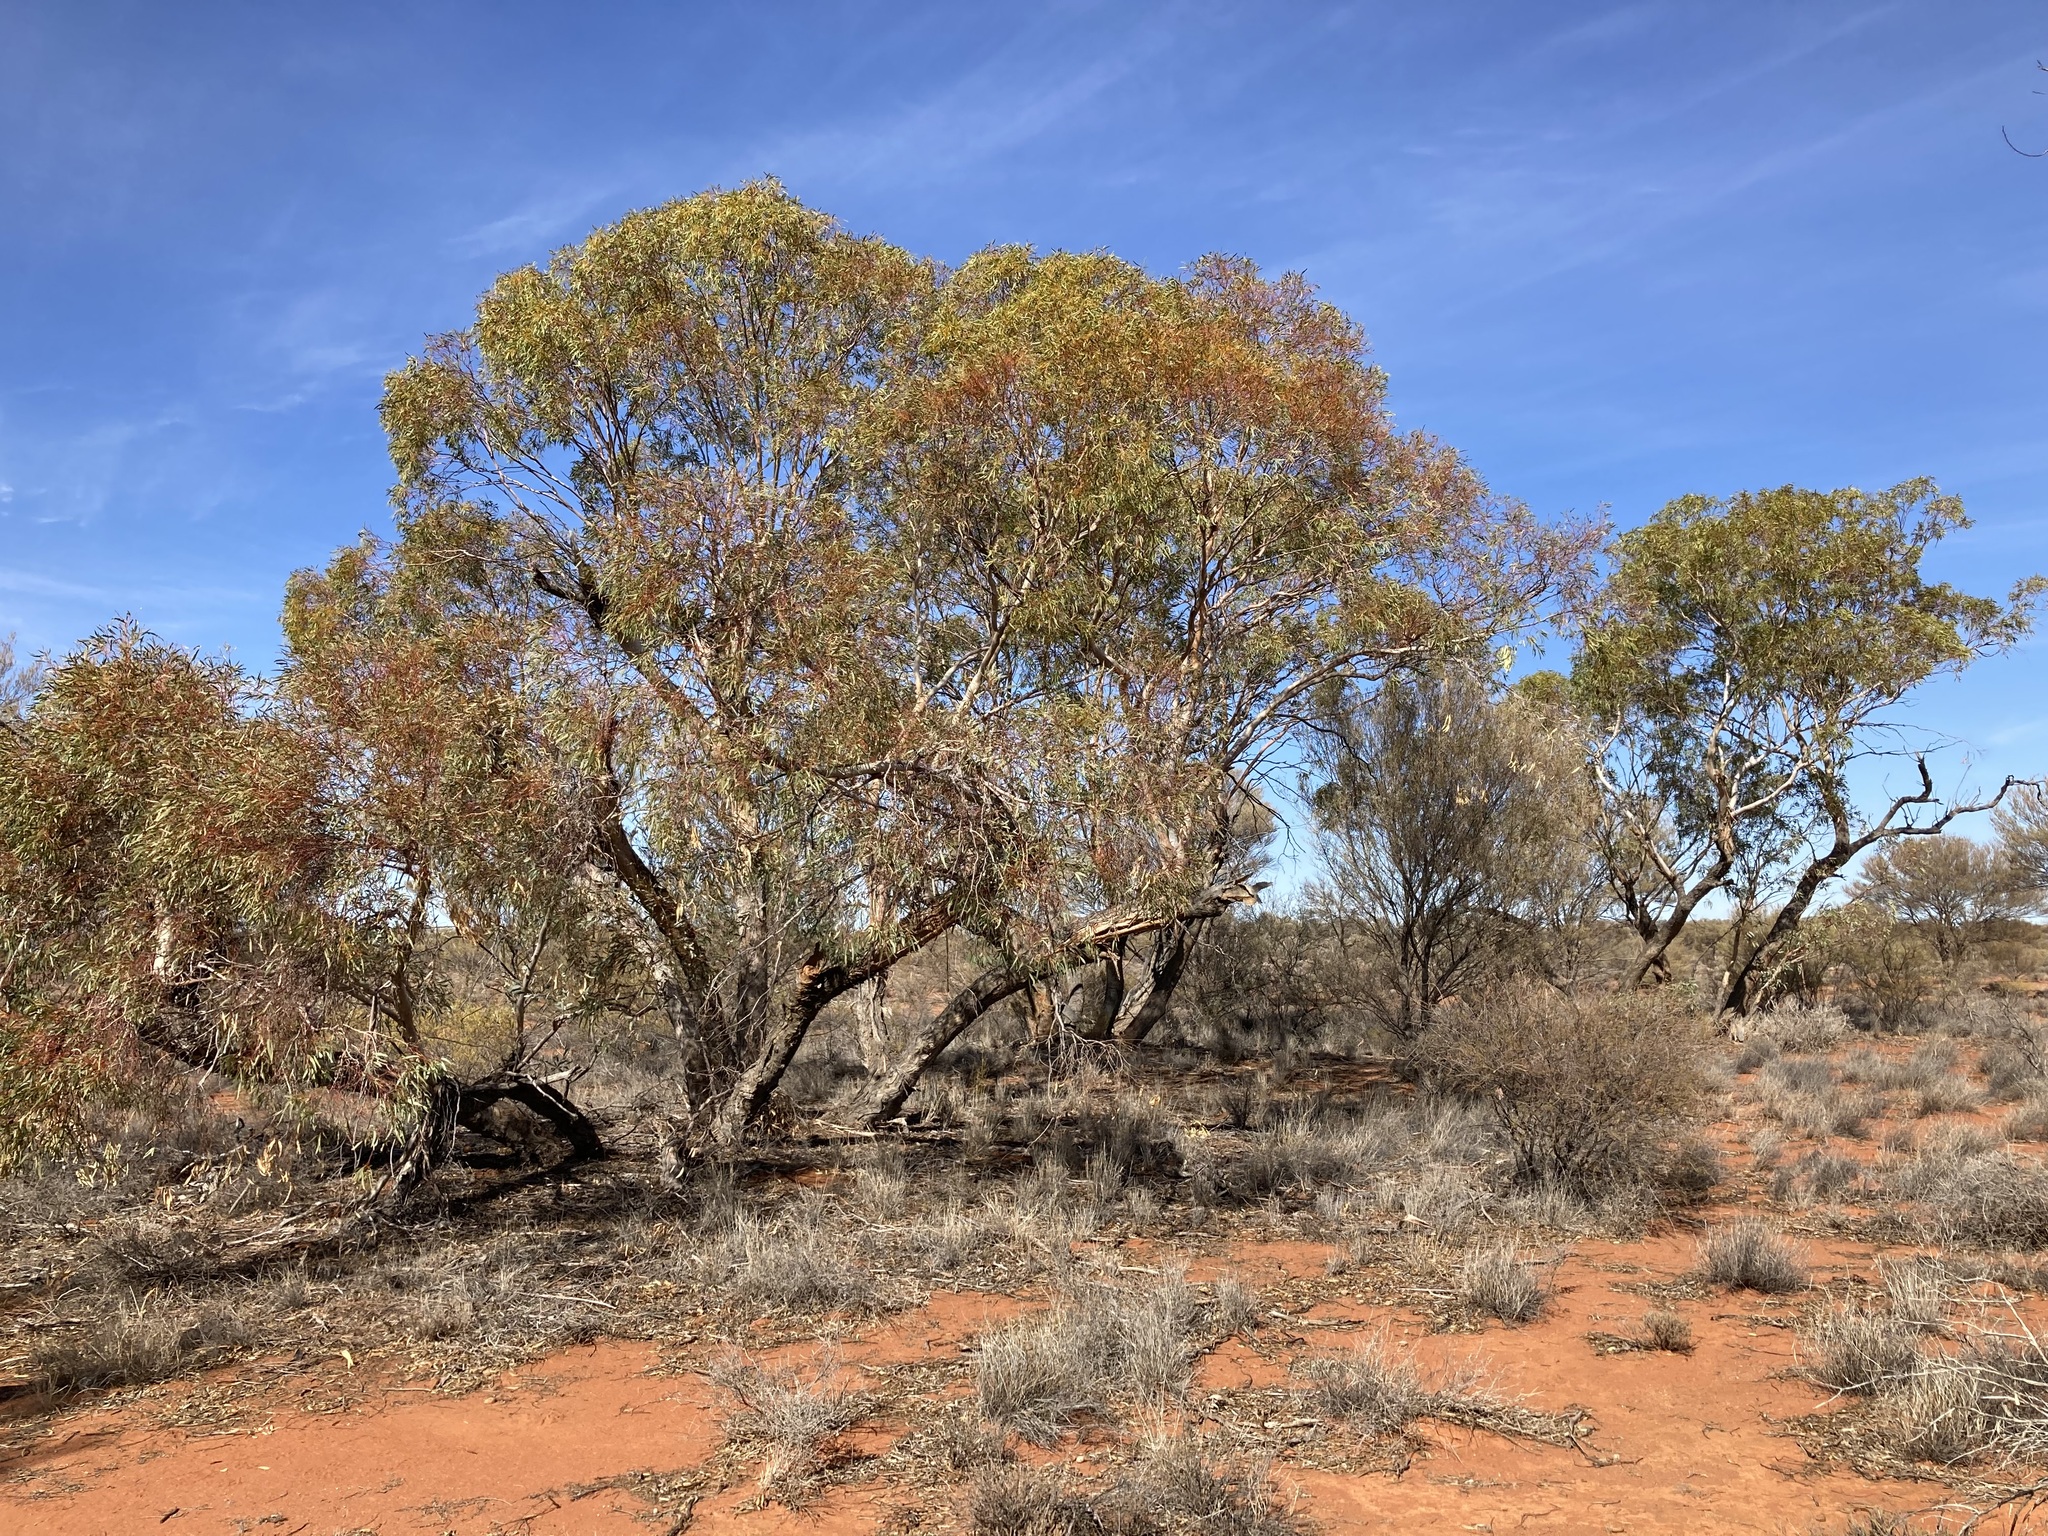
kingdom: Plantae
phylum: Tracheophyta
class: Magnoliopsida
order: Myrtales
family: Myrtaceae
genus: Eucalyptus
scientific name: Eucalyptus eremicola
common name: Nawa mallee
